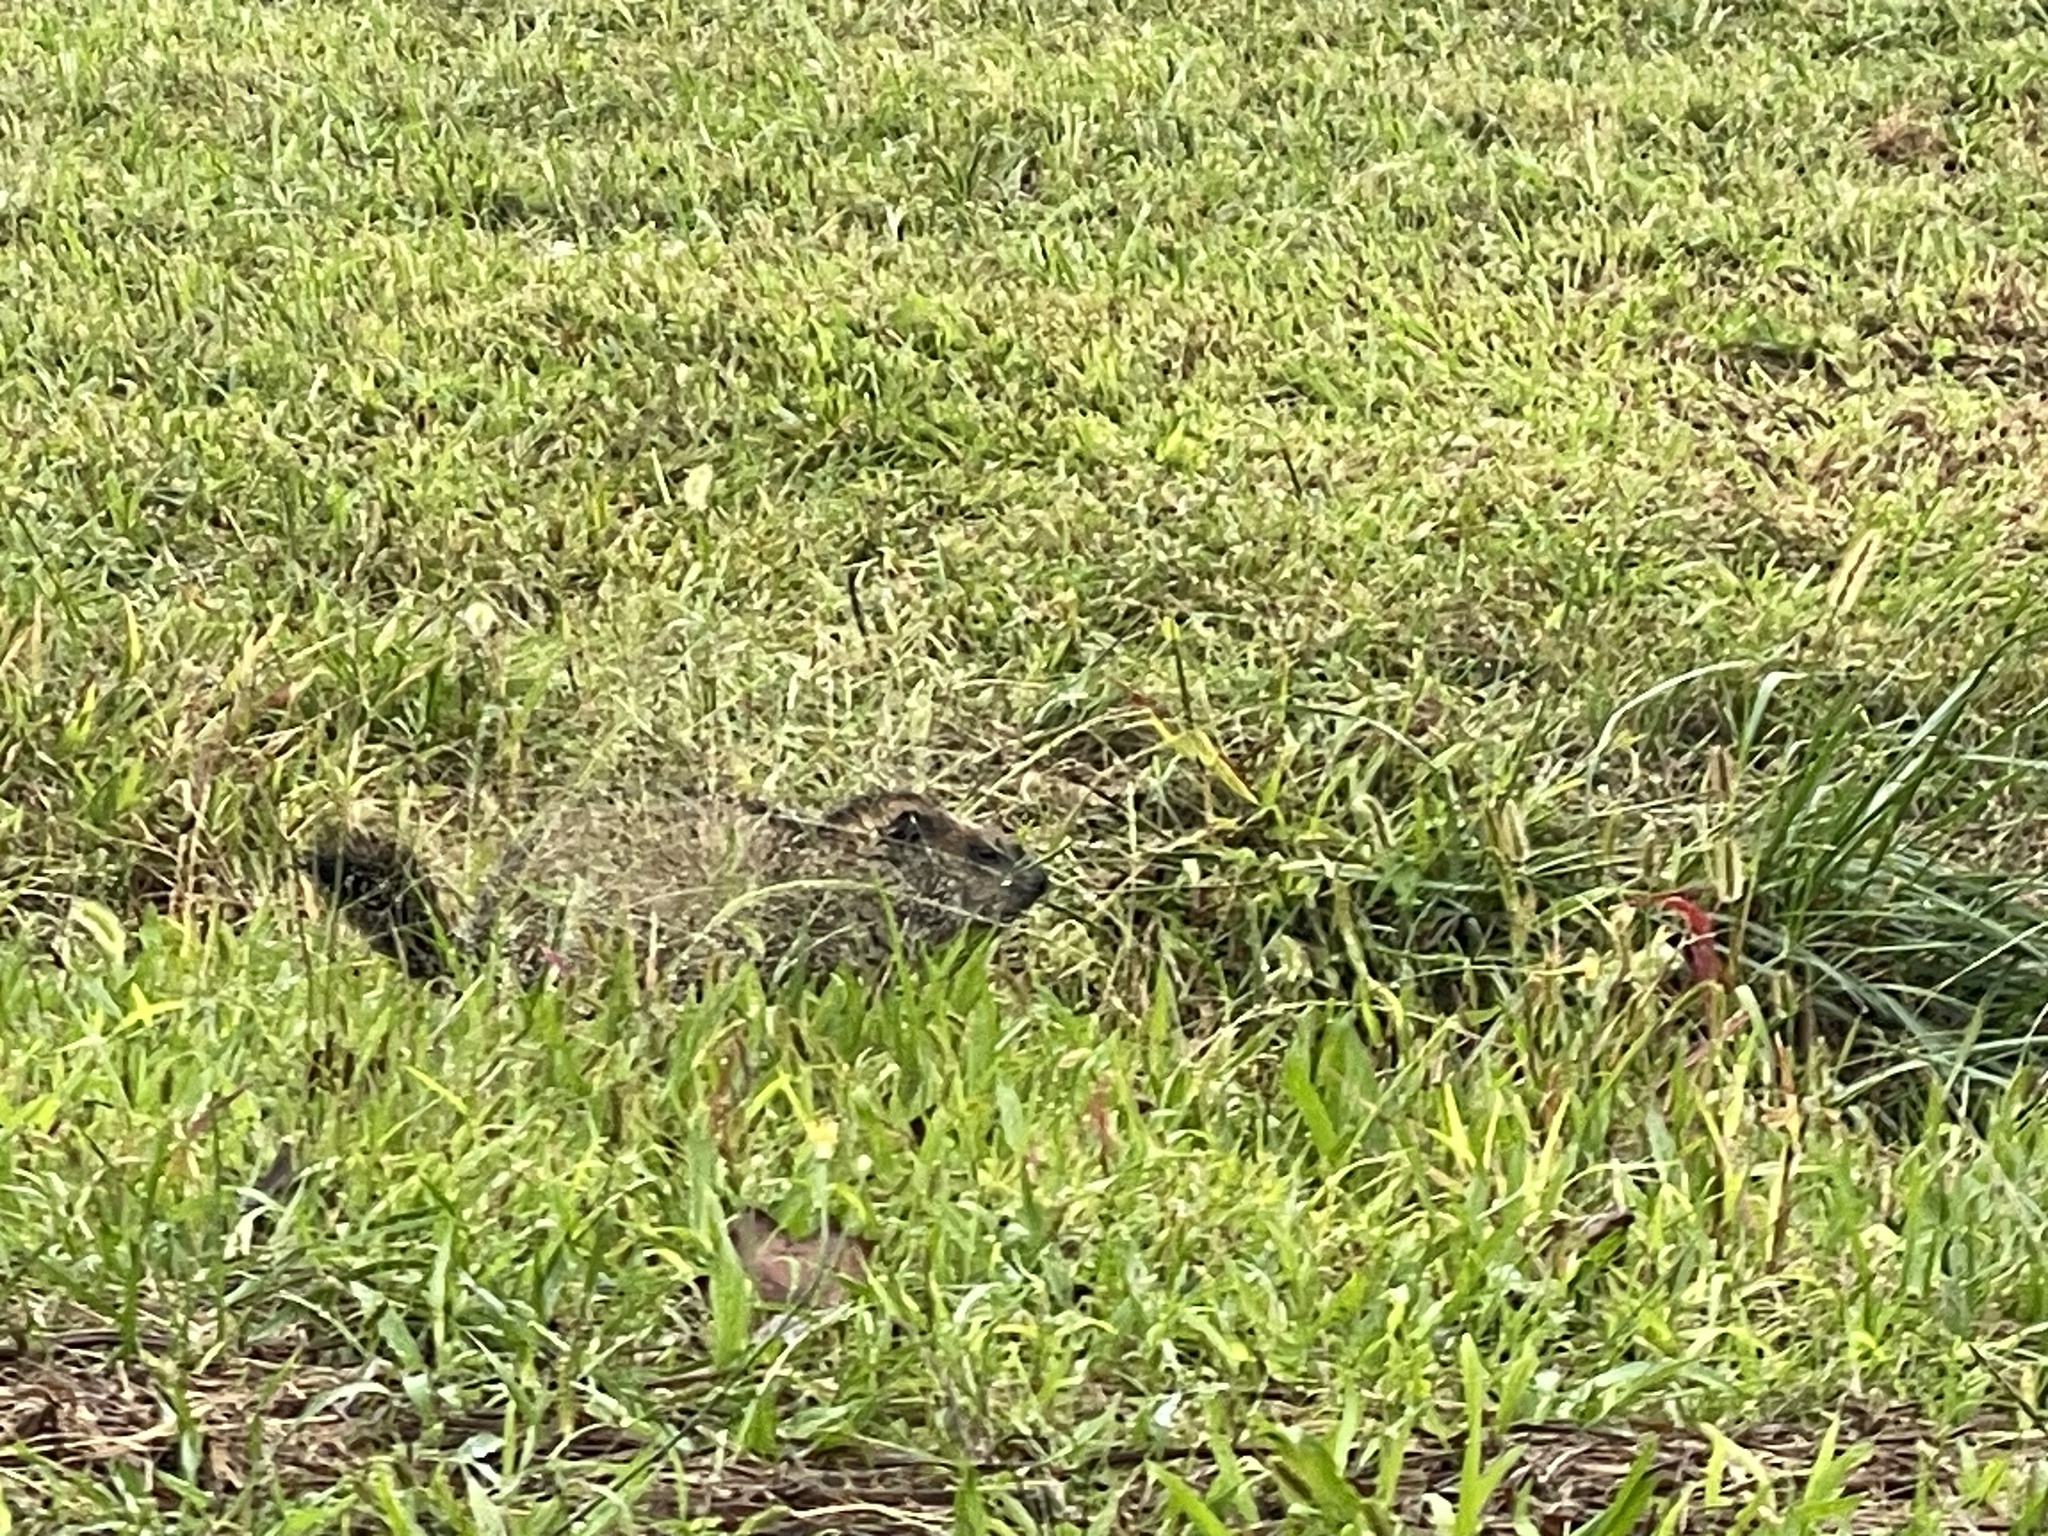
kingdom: Animalia
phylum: Chordata
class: Mammalia
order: Rodentia
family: Sciuridae
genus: Marmota
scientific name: Marmota monax
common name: Groundhog
